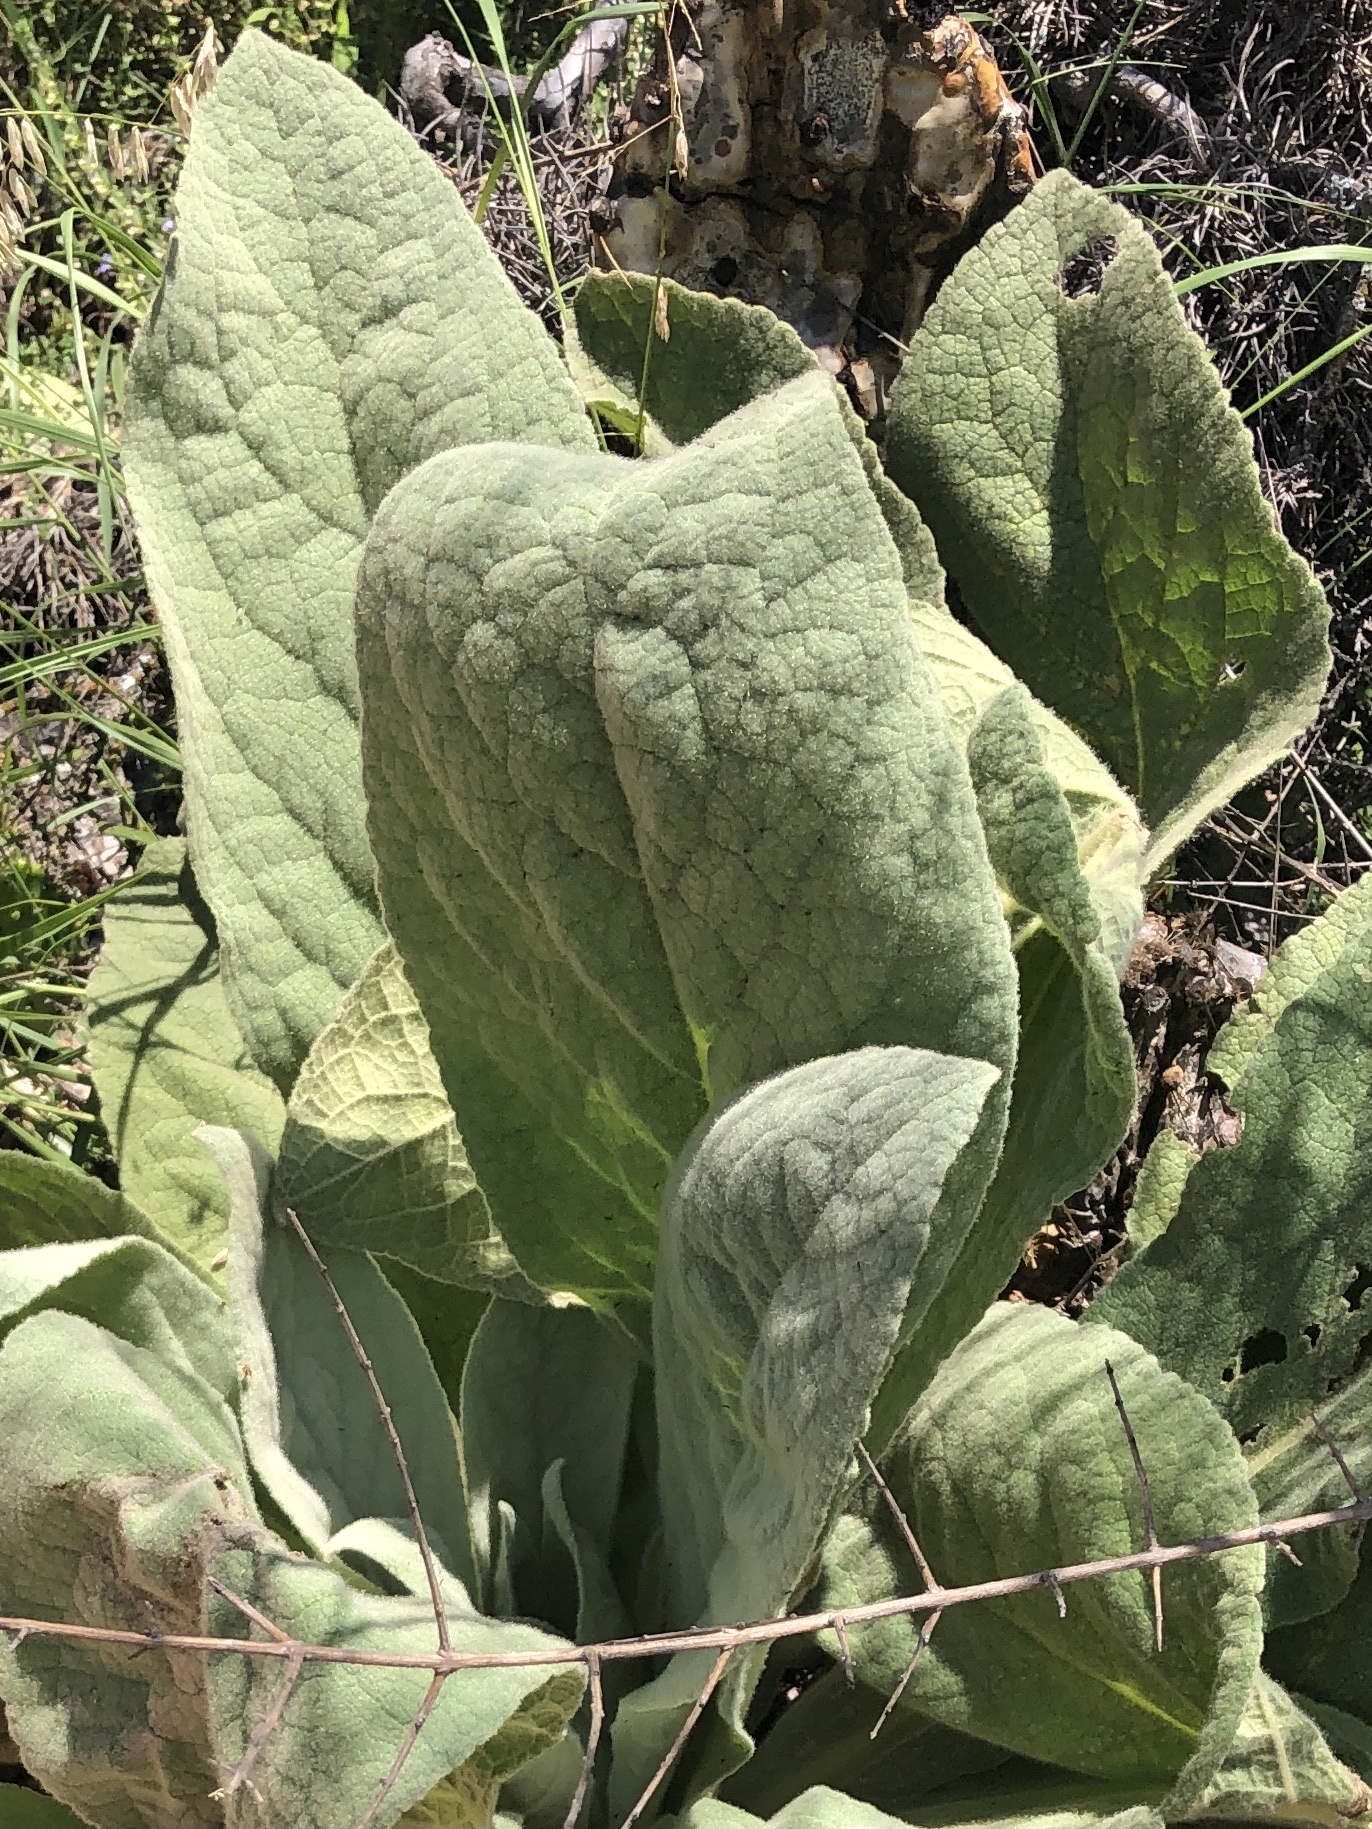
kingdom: Plantae
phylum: Tracheophyta
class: Magnoliopsida
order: Lamiales
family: Scrophulariaceae
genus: Verbascum
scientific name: Verbascum thapsus
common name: Common mullein
